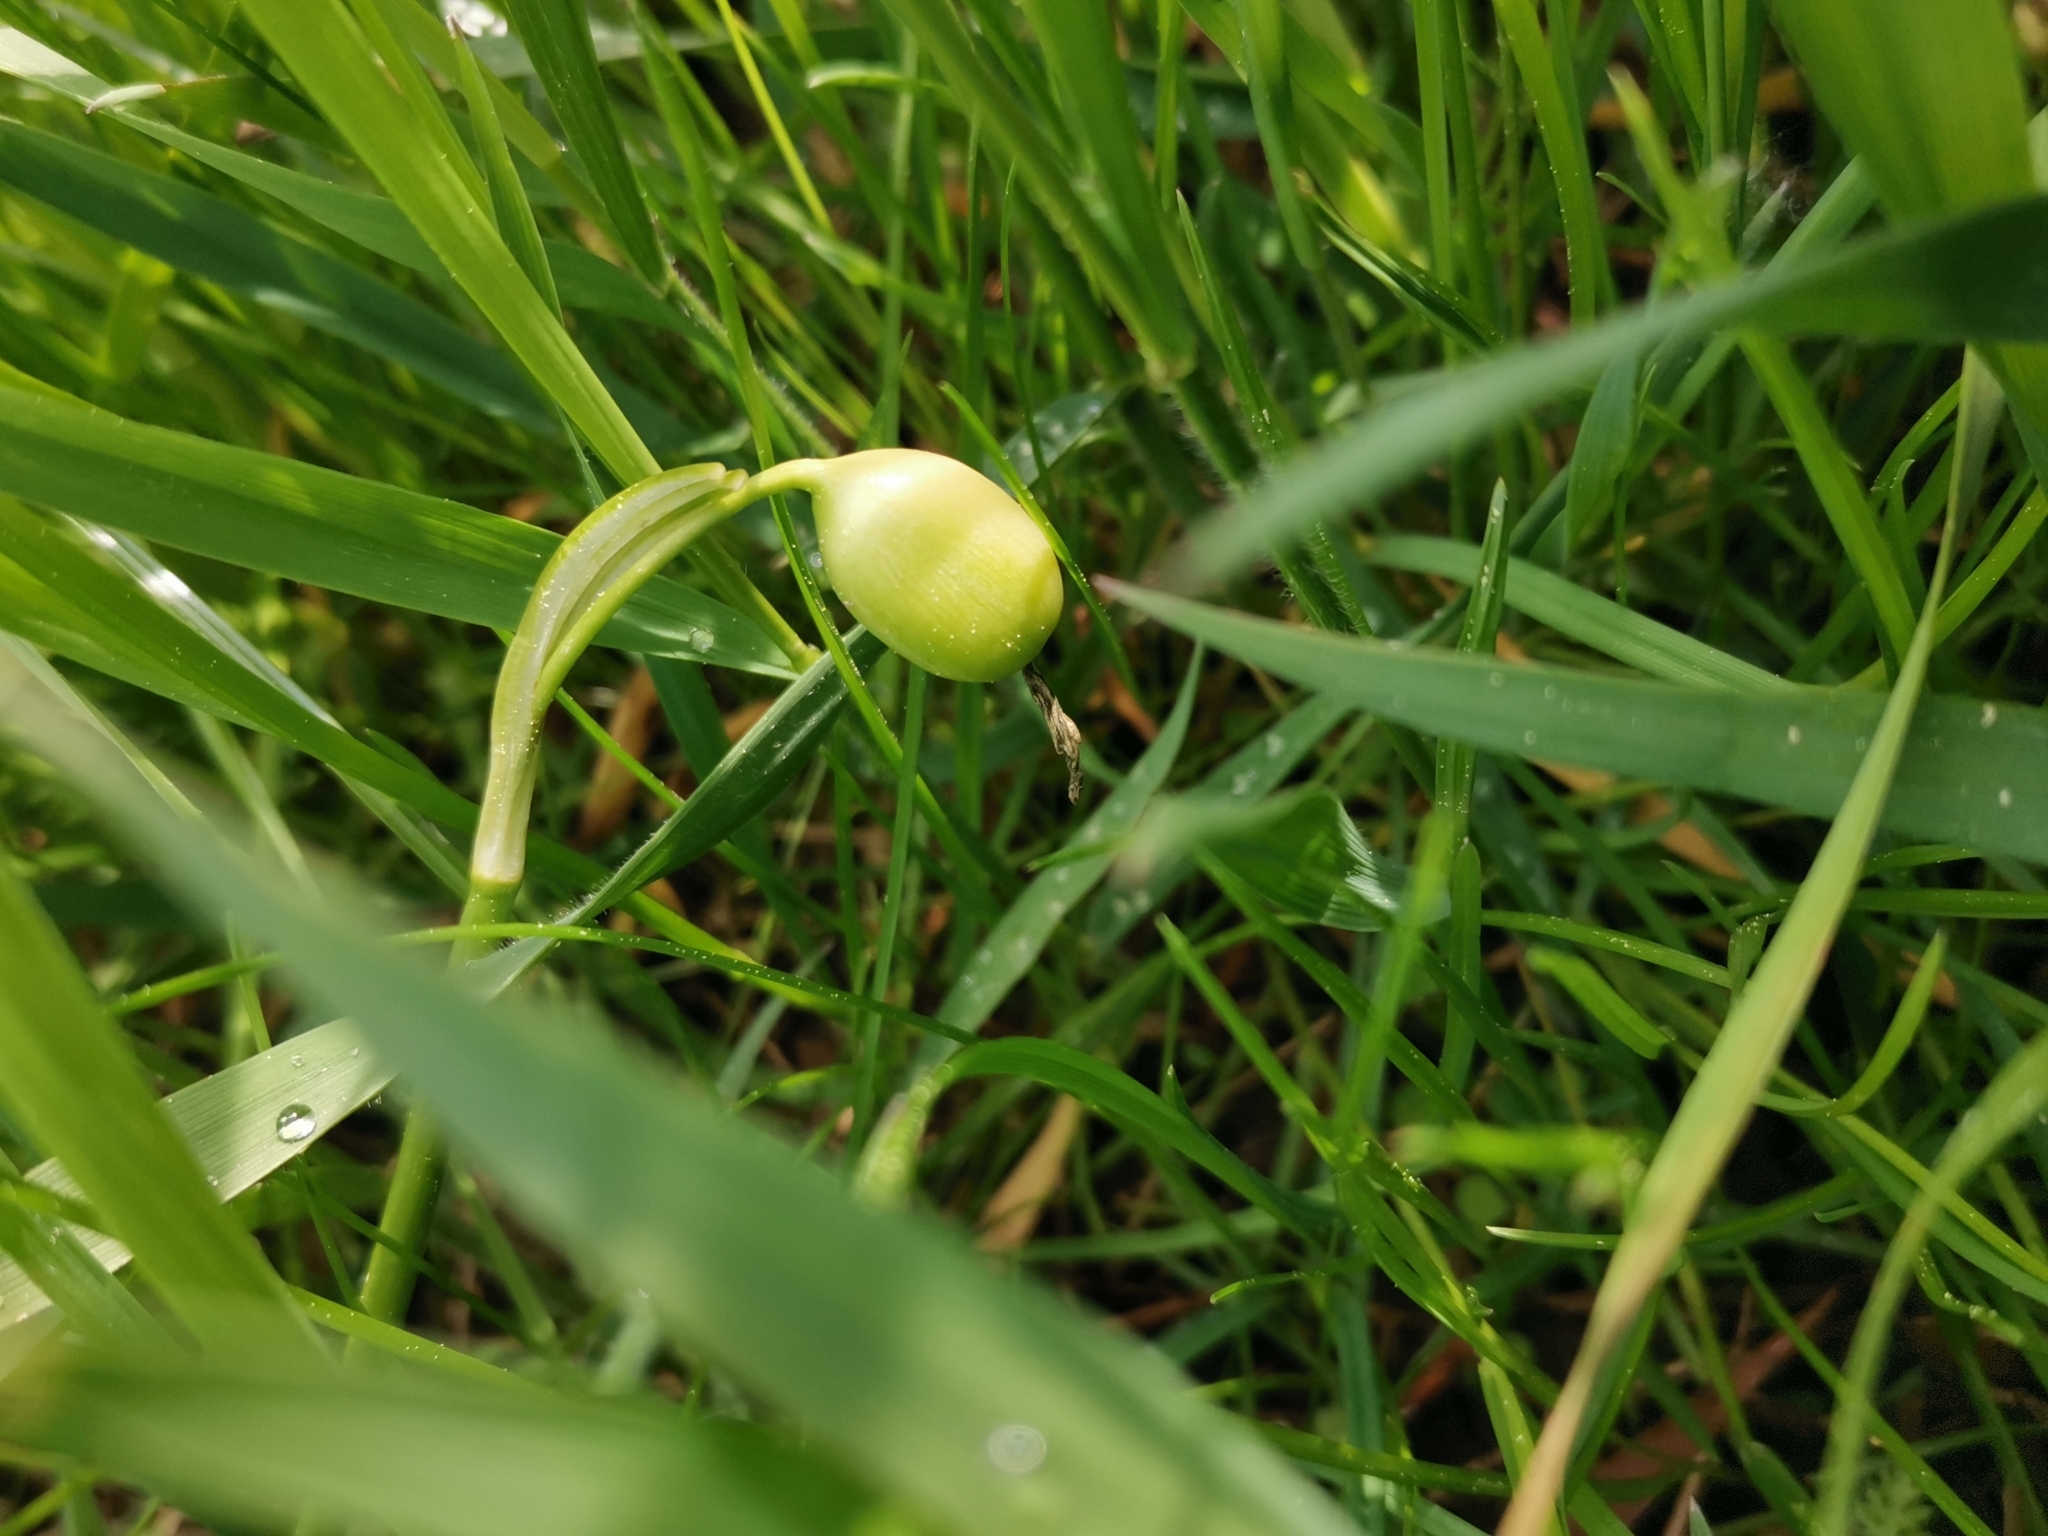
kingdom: Plantae
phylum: Tracheophyta
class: Liliopsida
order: Asparagales
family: Amaryllidaceae
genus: Leucojum
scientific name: Leucojum vernum
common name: Spring snowflake
